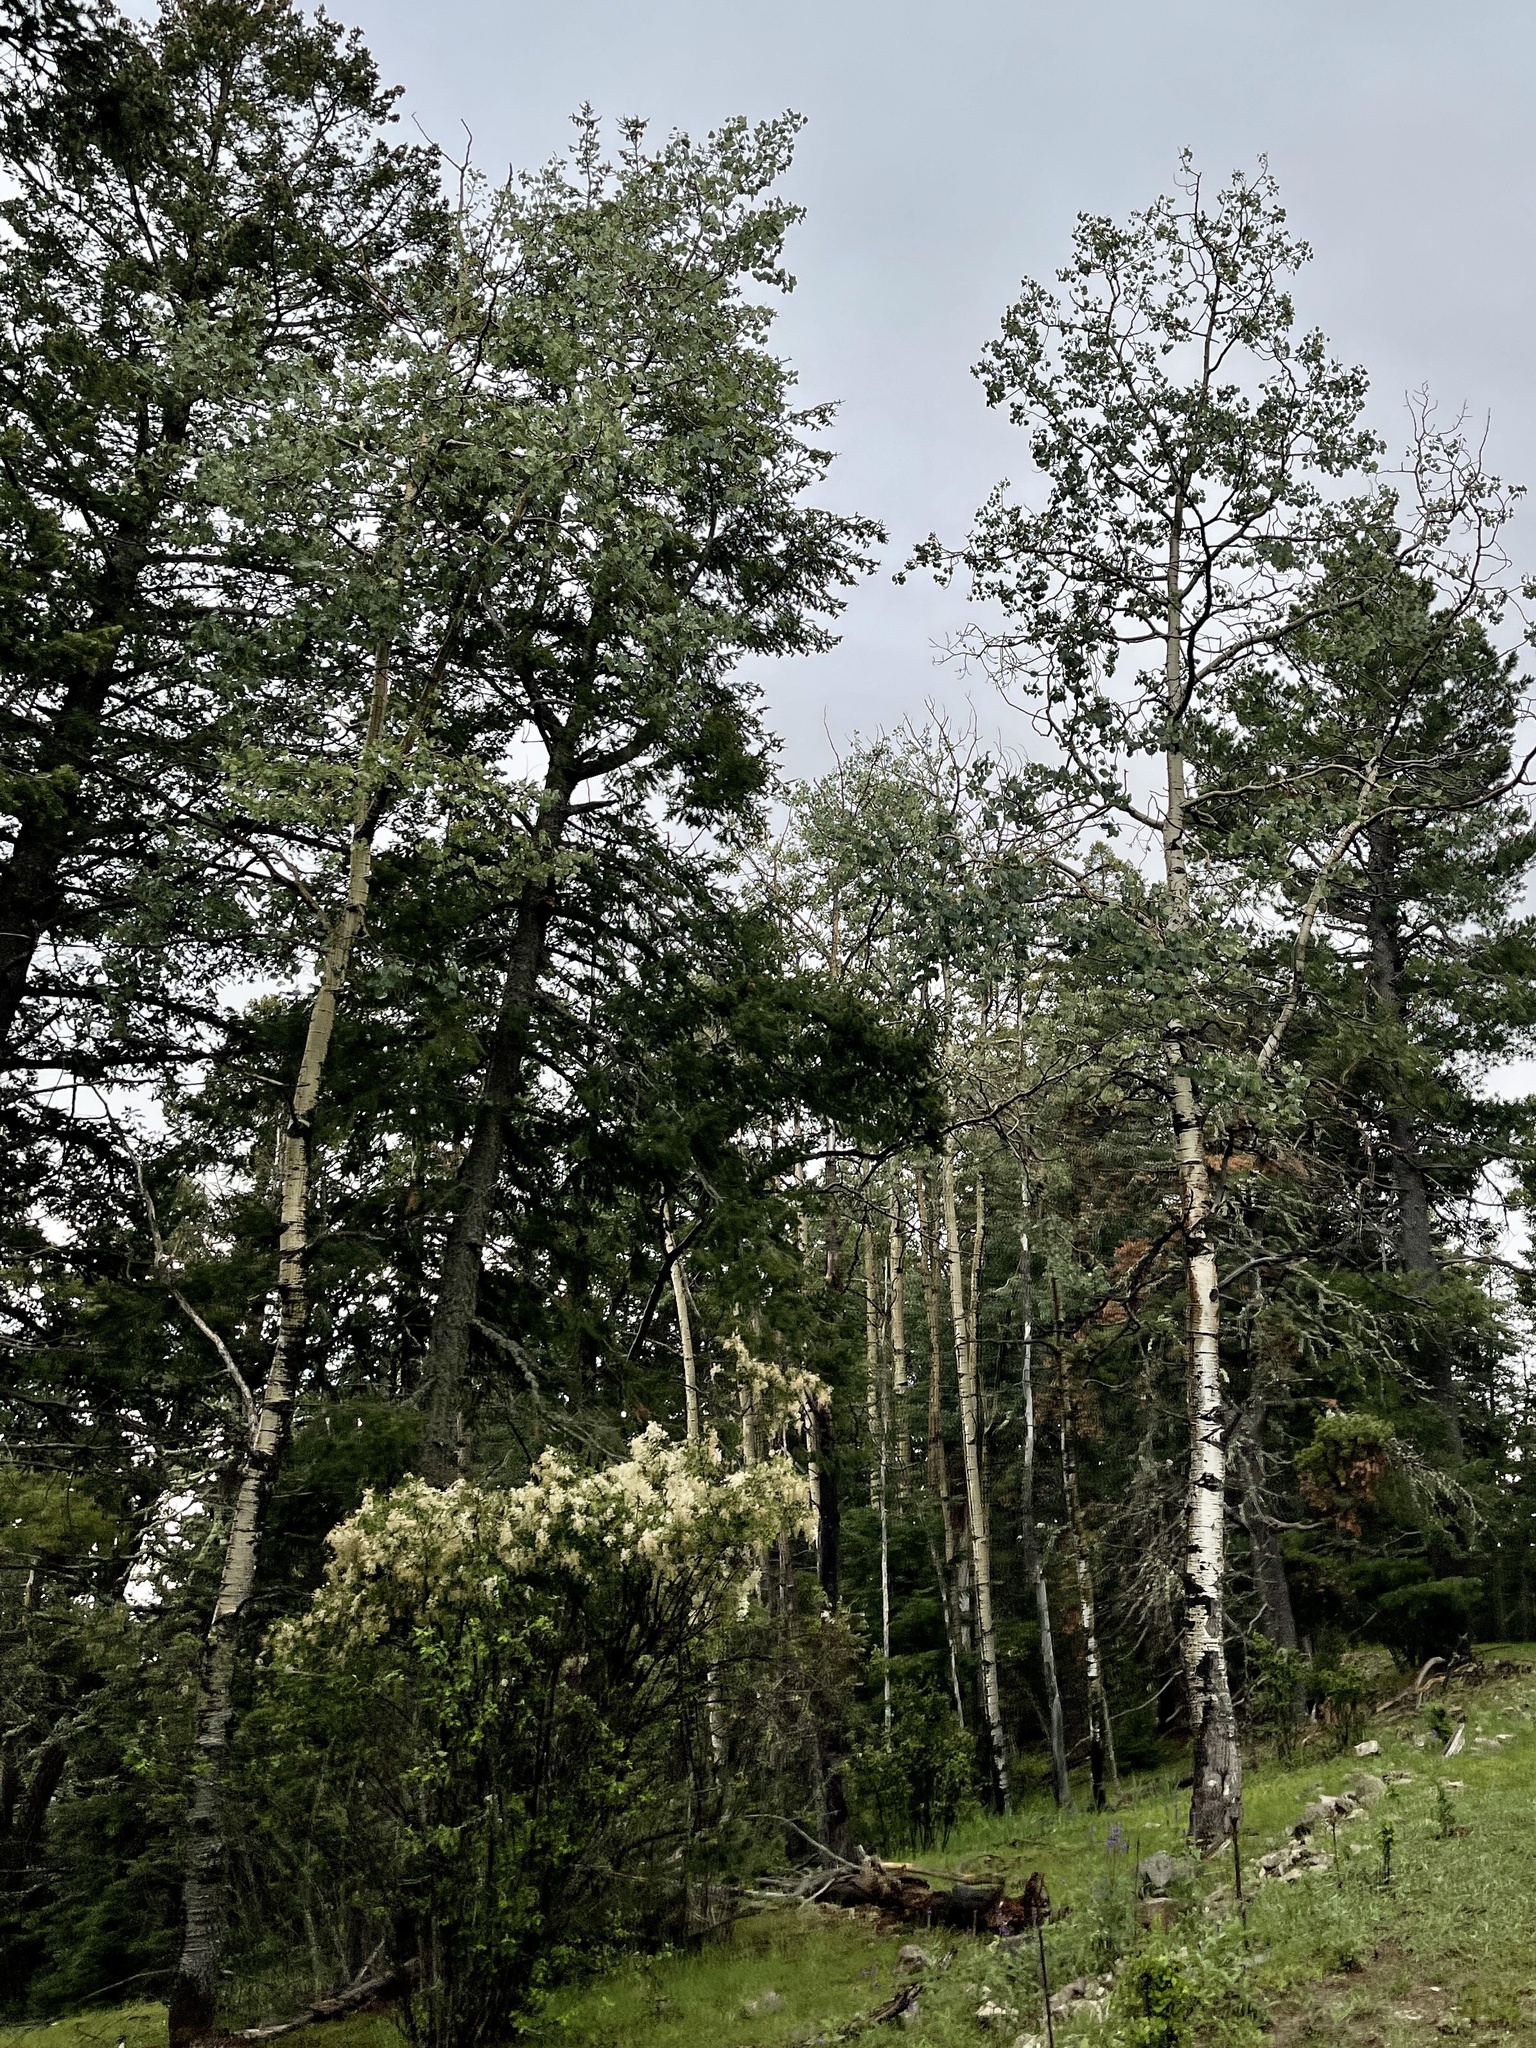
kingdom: Plantae
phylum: Tracheophyta
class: Magnoliopsida
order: Malpighiales
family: Salicaceae
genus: Populus
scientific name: Populus tremuloides
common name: Quaking aspen
